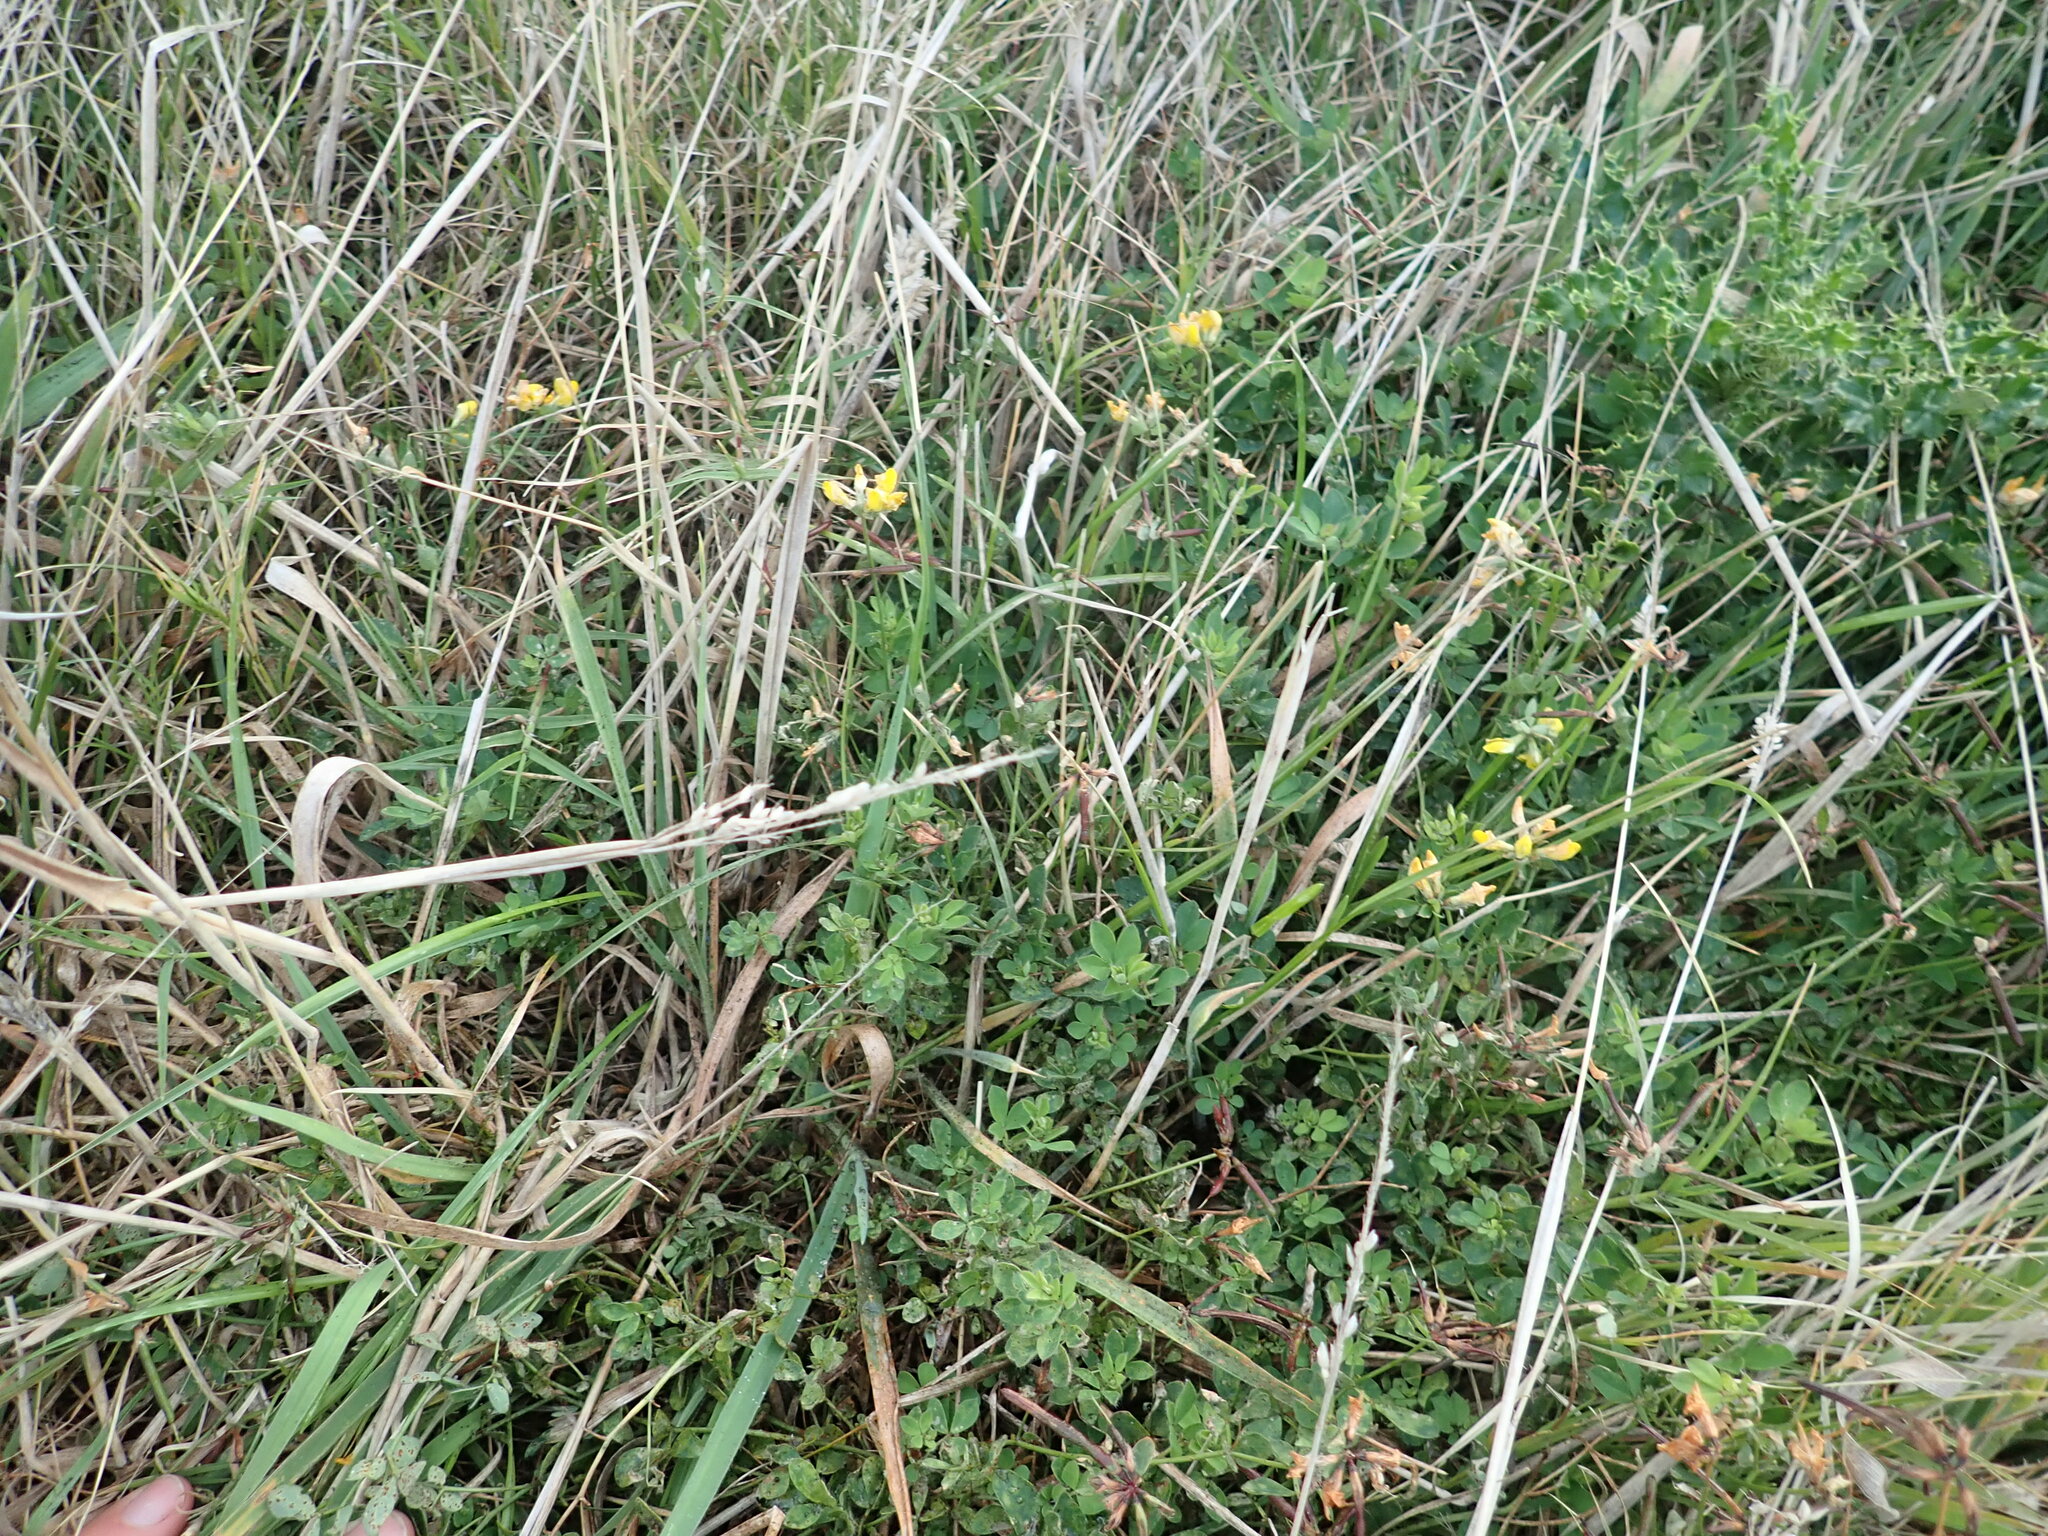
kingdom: Plantae
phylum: Tracheophyta
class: Magnoliopsida
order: Fabales
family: Fabaceae
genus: Lotus
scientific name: Lotus pedunculatus
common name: Greater birdsfoot-trefoil
